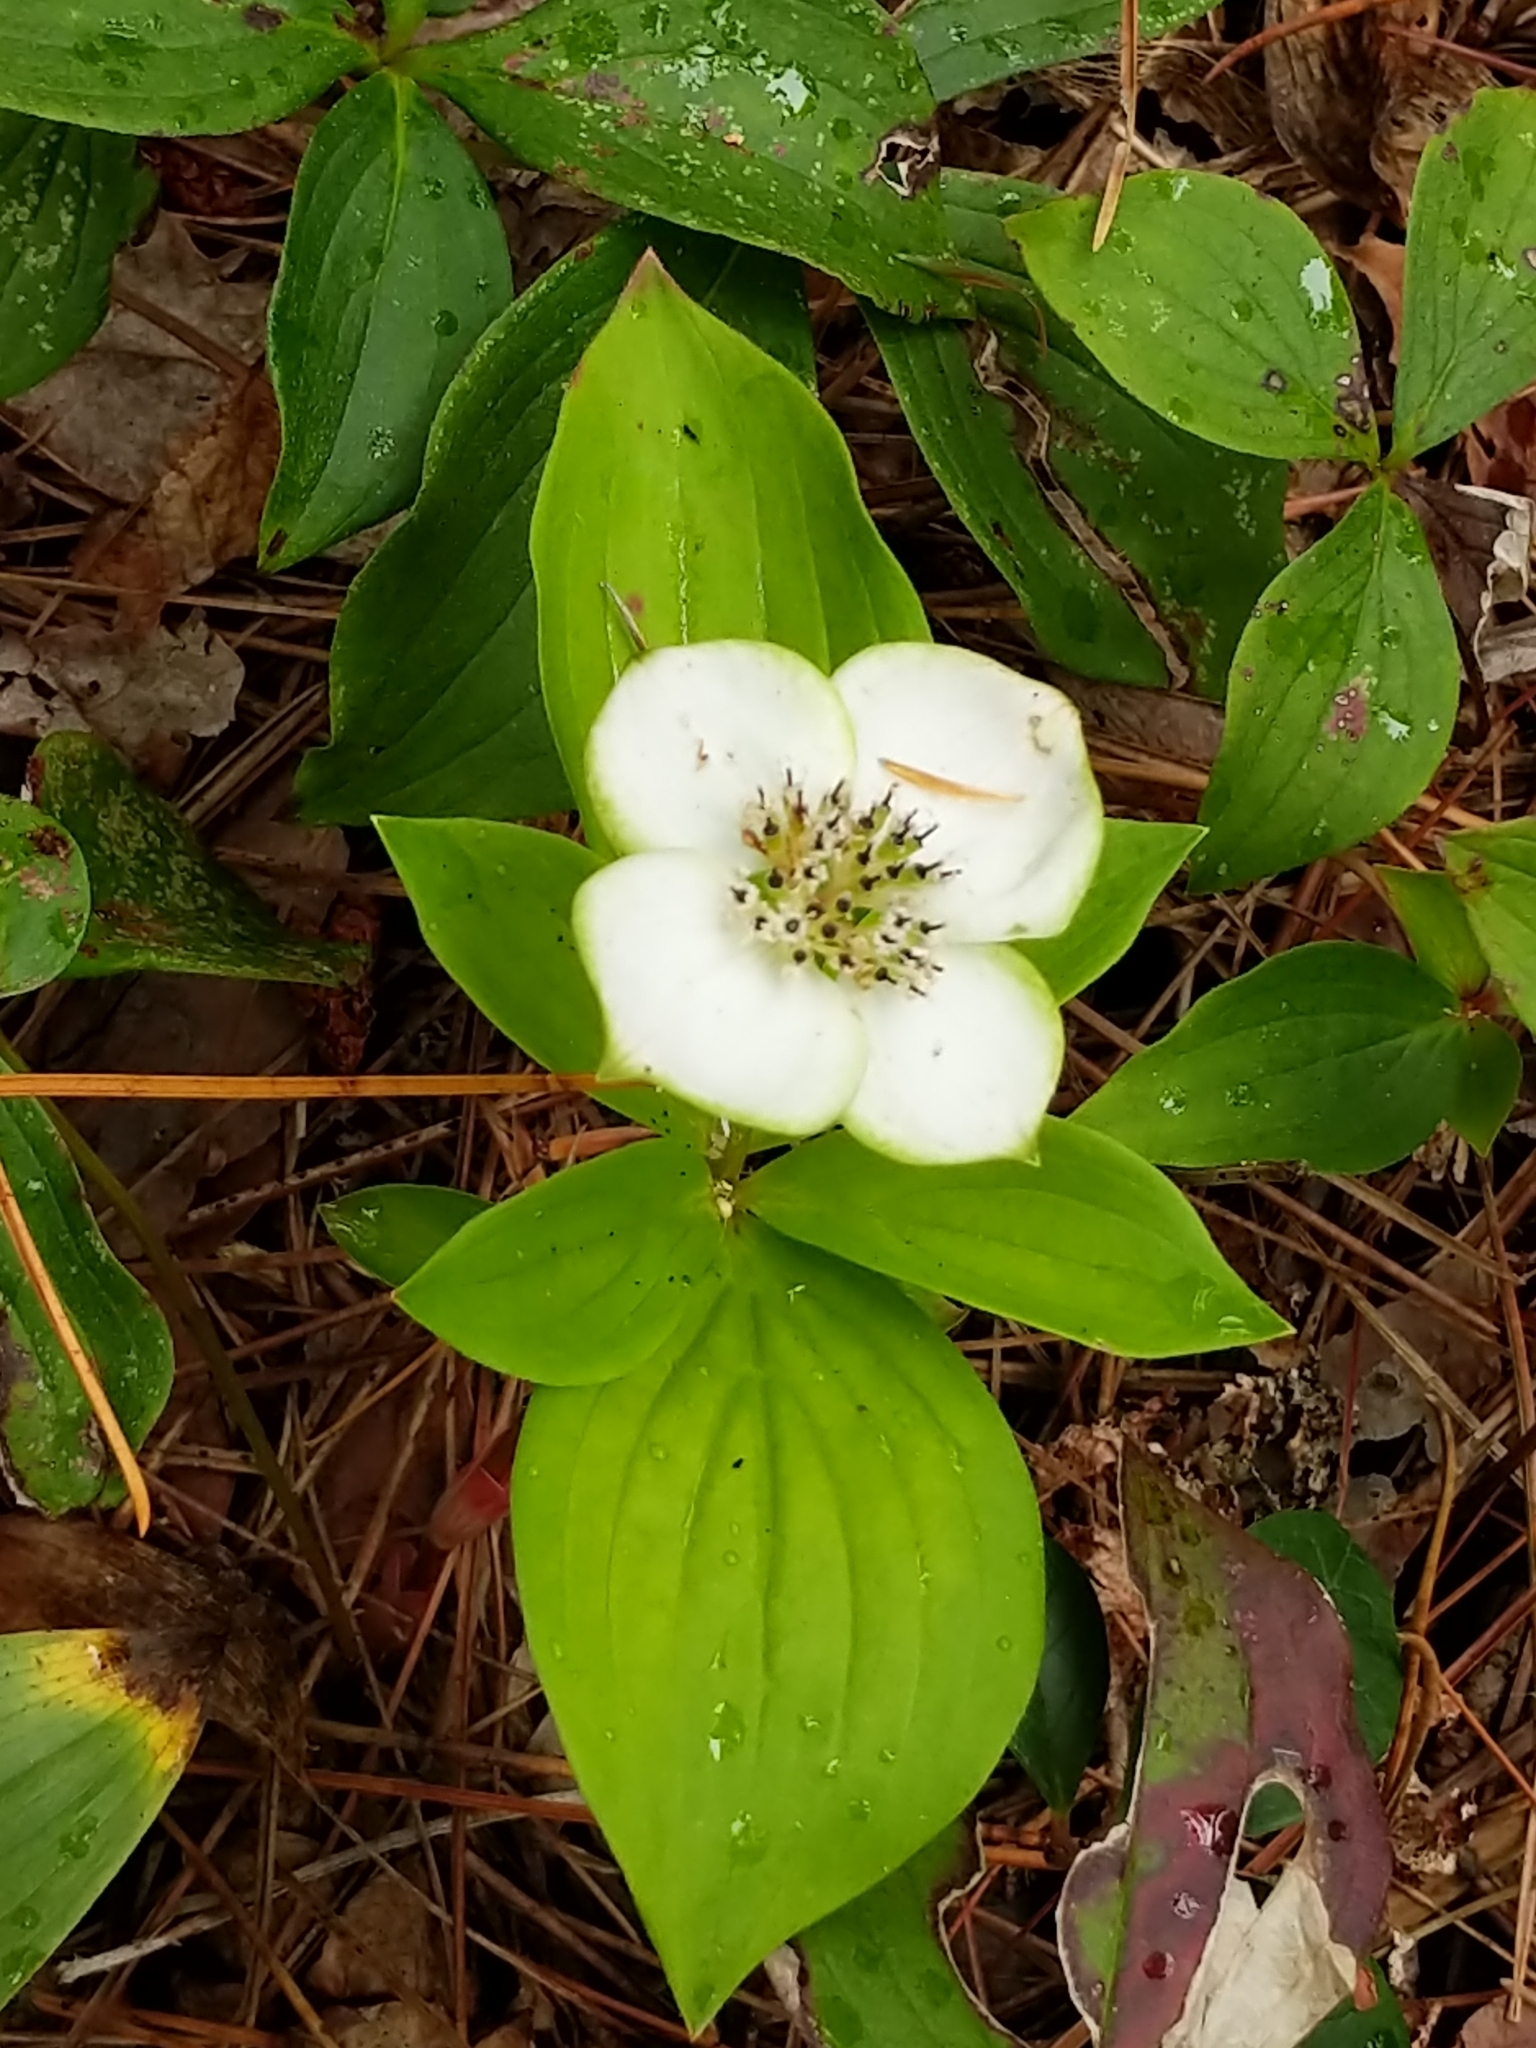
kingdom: Plantae
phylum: Tracheophyta
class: Magnoliopsida
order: Cornales
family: Cornaceae
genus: Cornus
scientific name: Cornus canadensis
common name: Creeping dogwood
